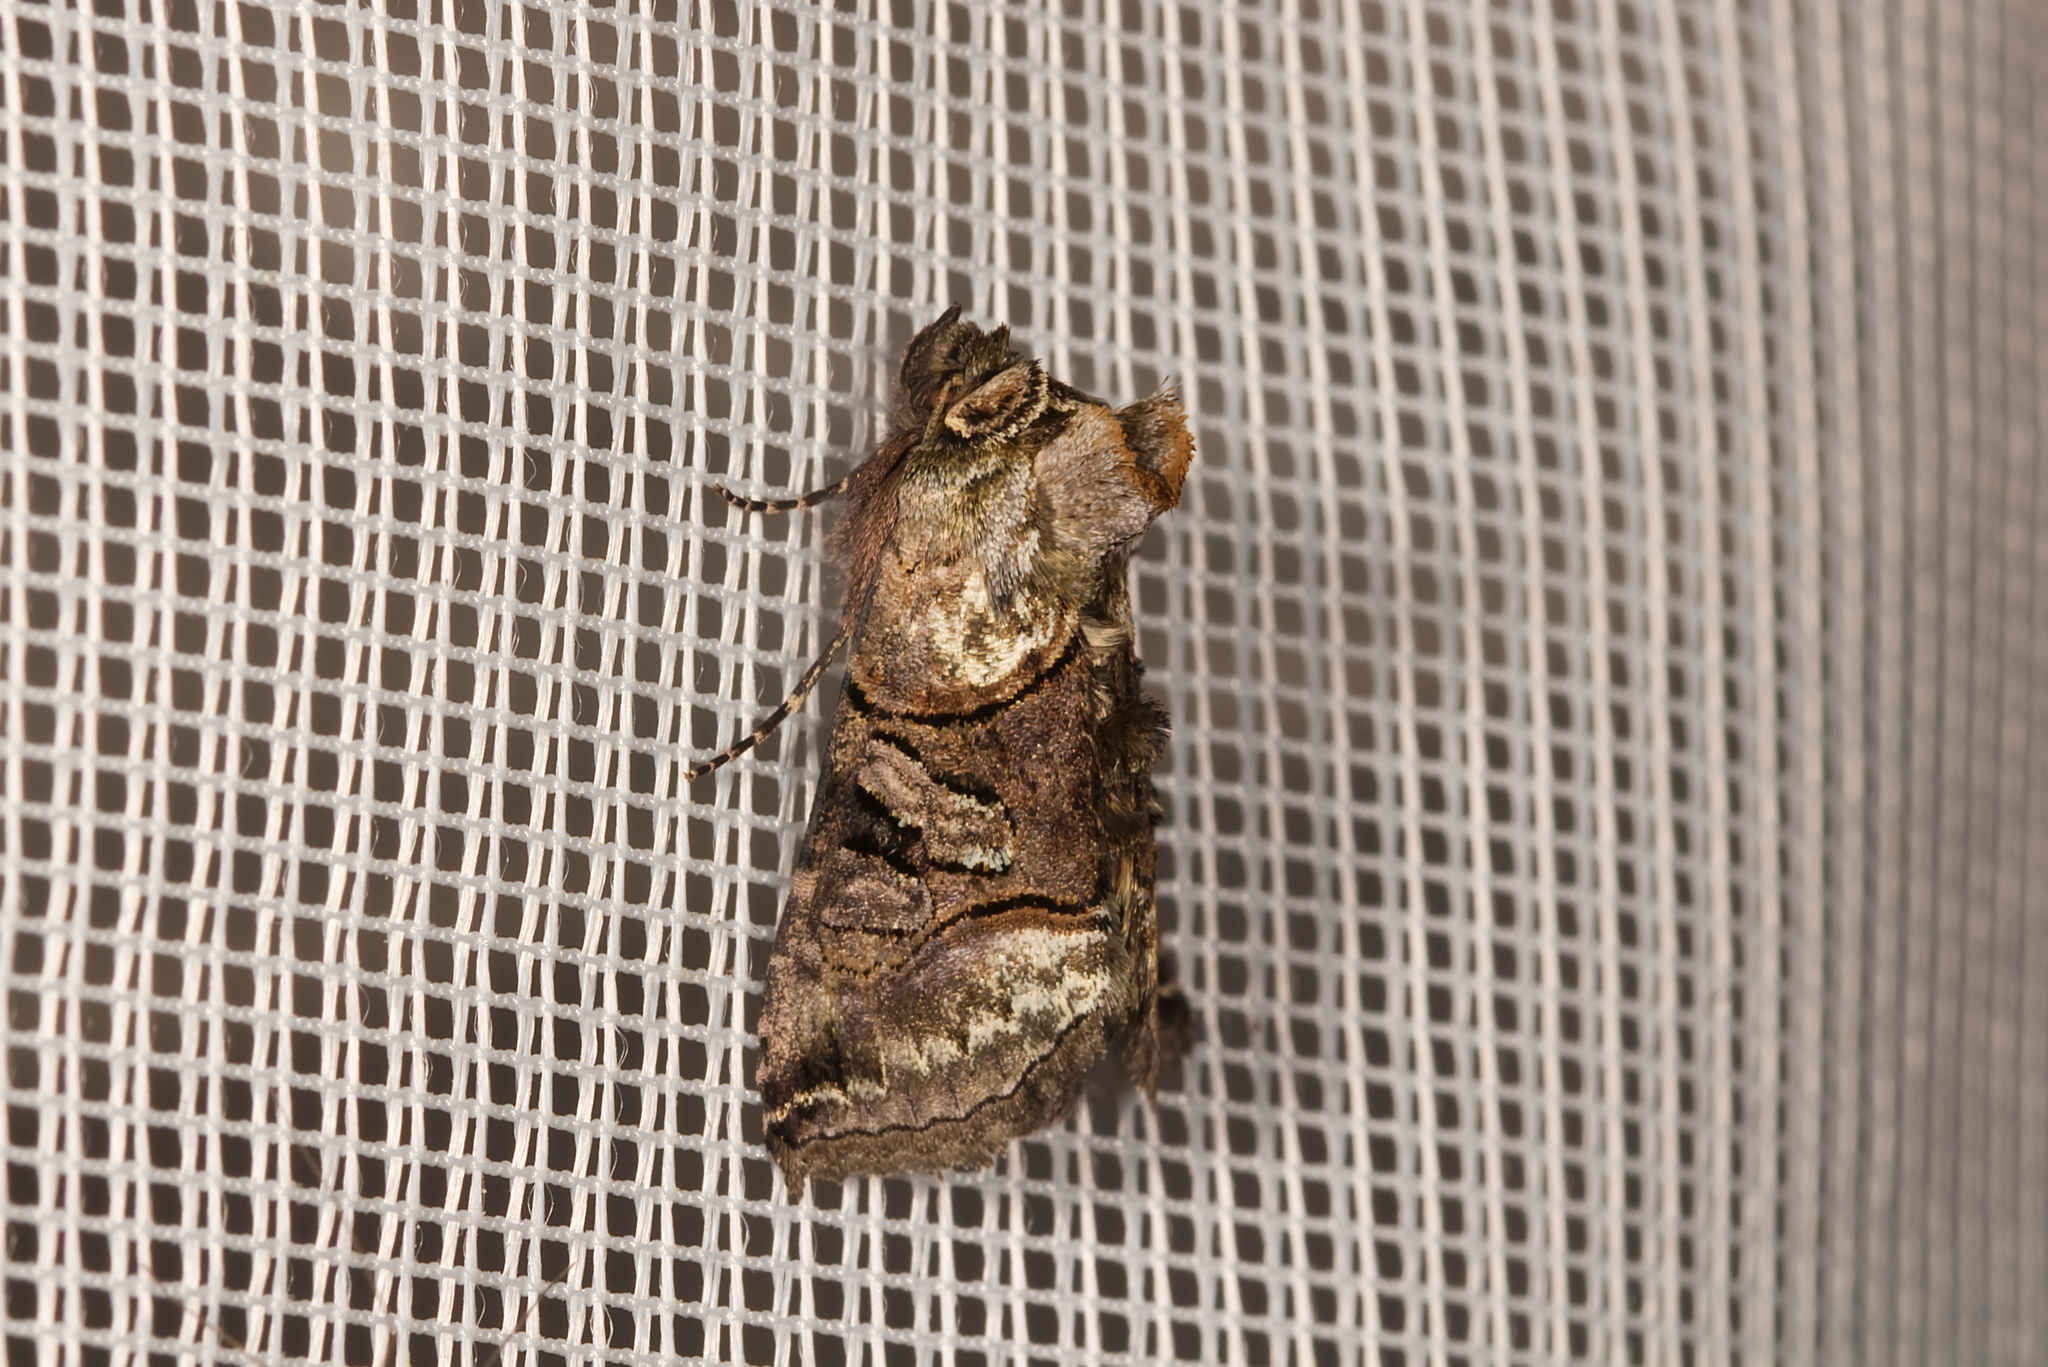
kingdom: Animalia
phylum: Arthropoda
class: Insecta
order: Lepidoptera
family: Noctuidae
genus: Abrostola
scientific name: Abrostola tripartita
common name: Spectacle
